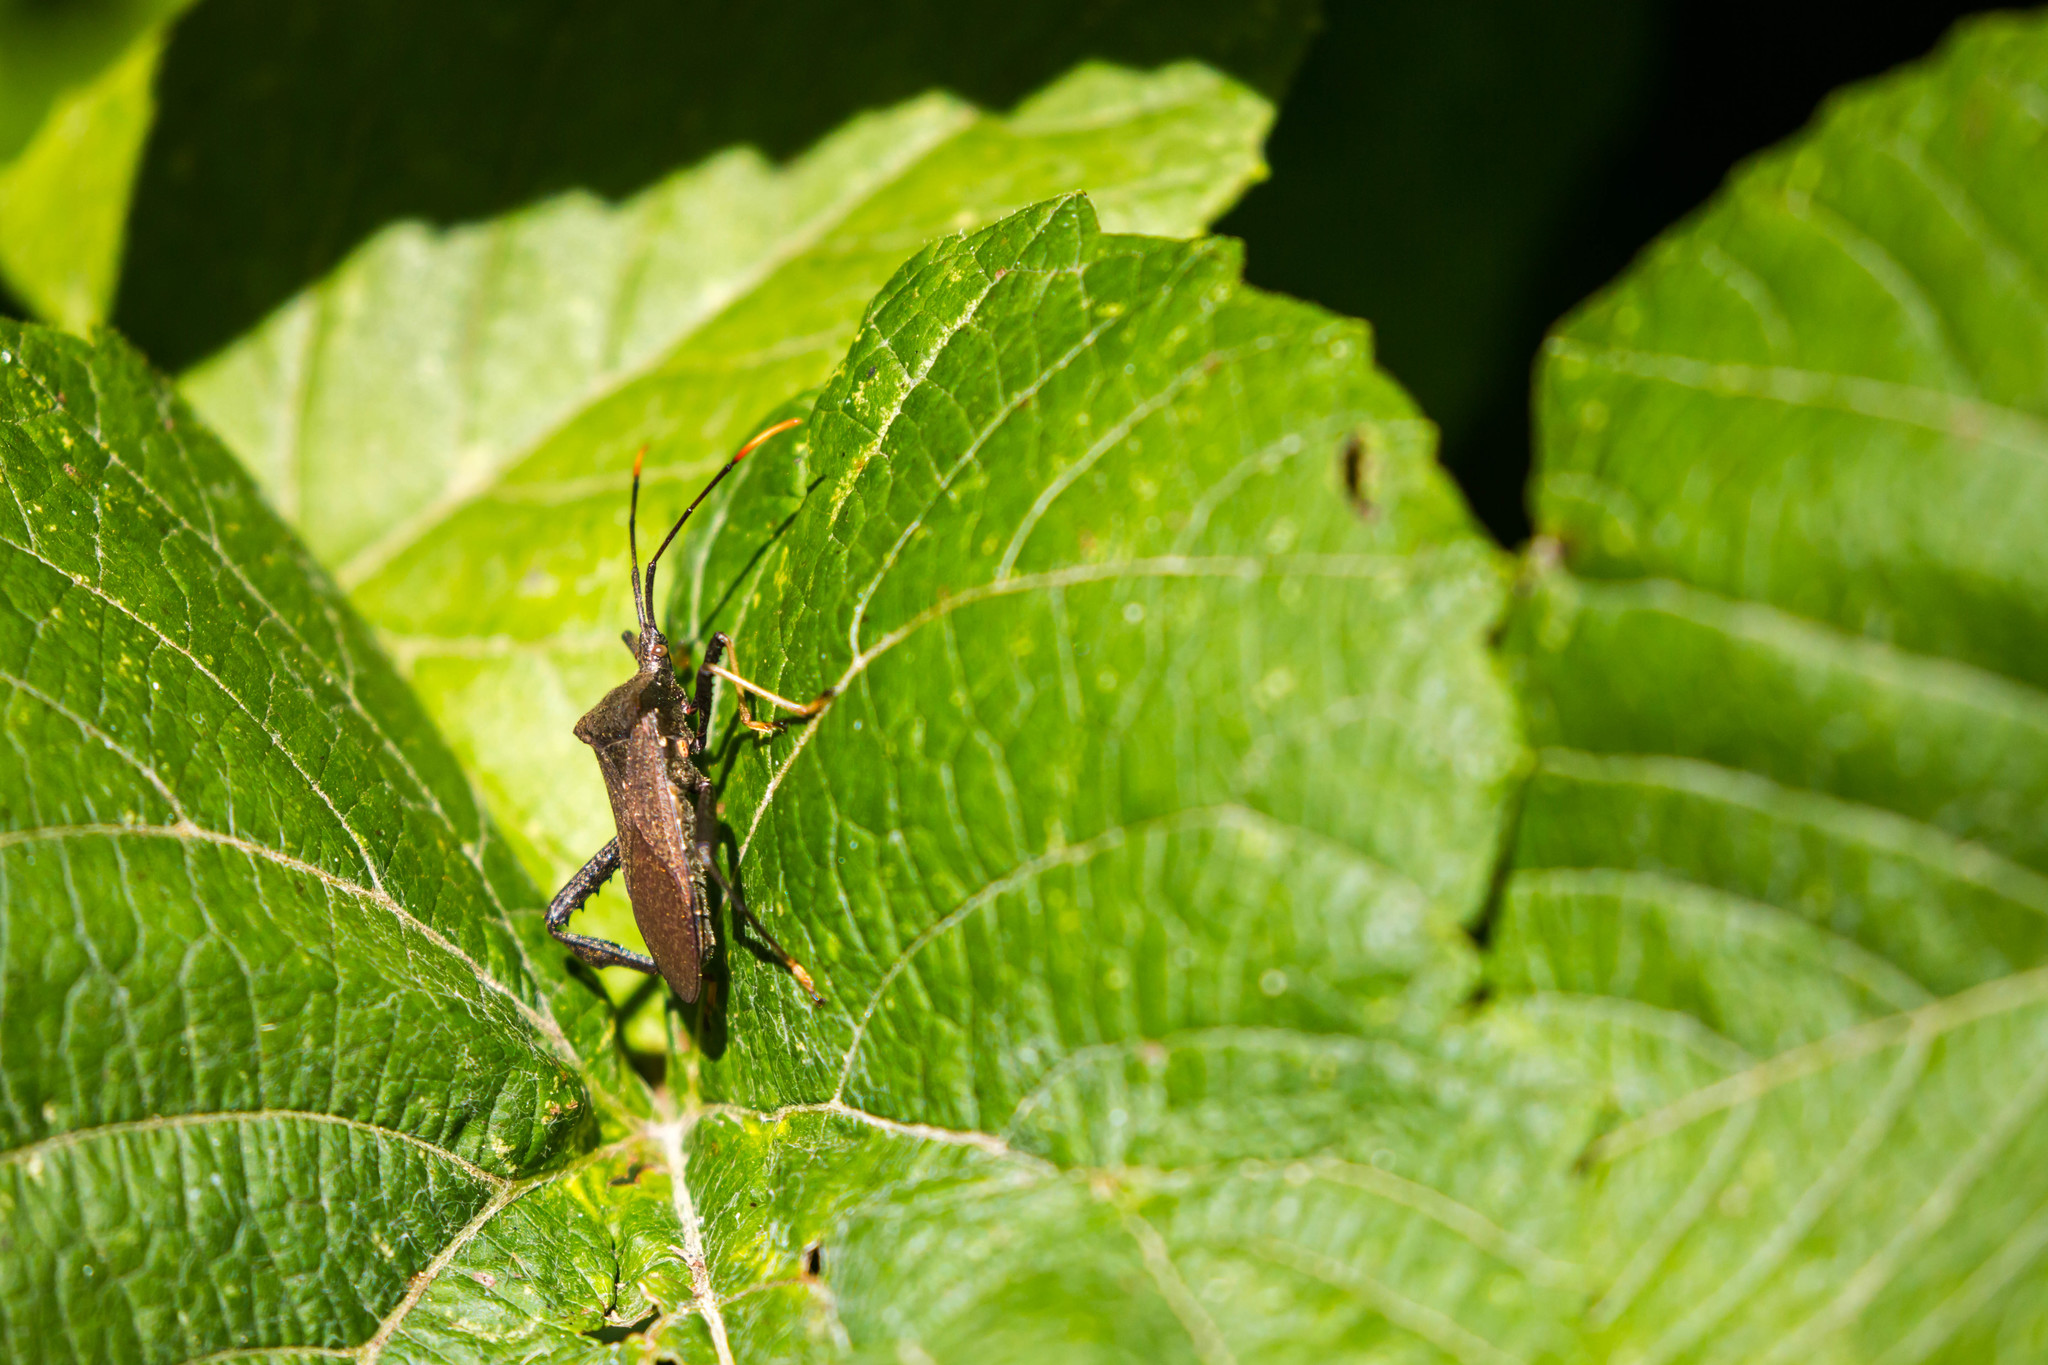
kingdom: Animalia
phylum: Arthropoda
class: Insecta
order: Hemiptera
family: Coreidae
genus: Acanthocephala
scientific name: Acanthocephala terminalis
